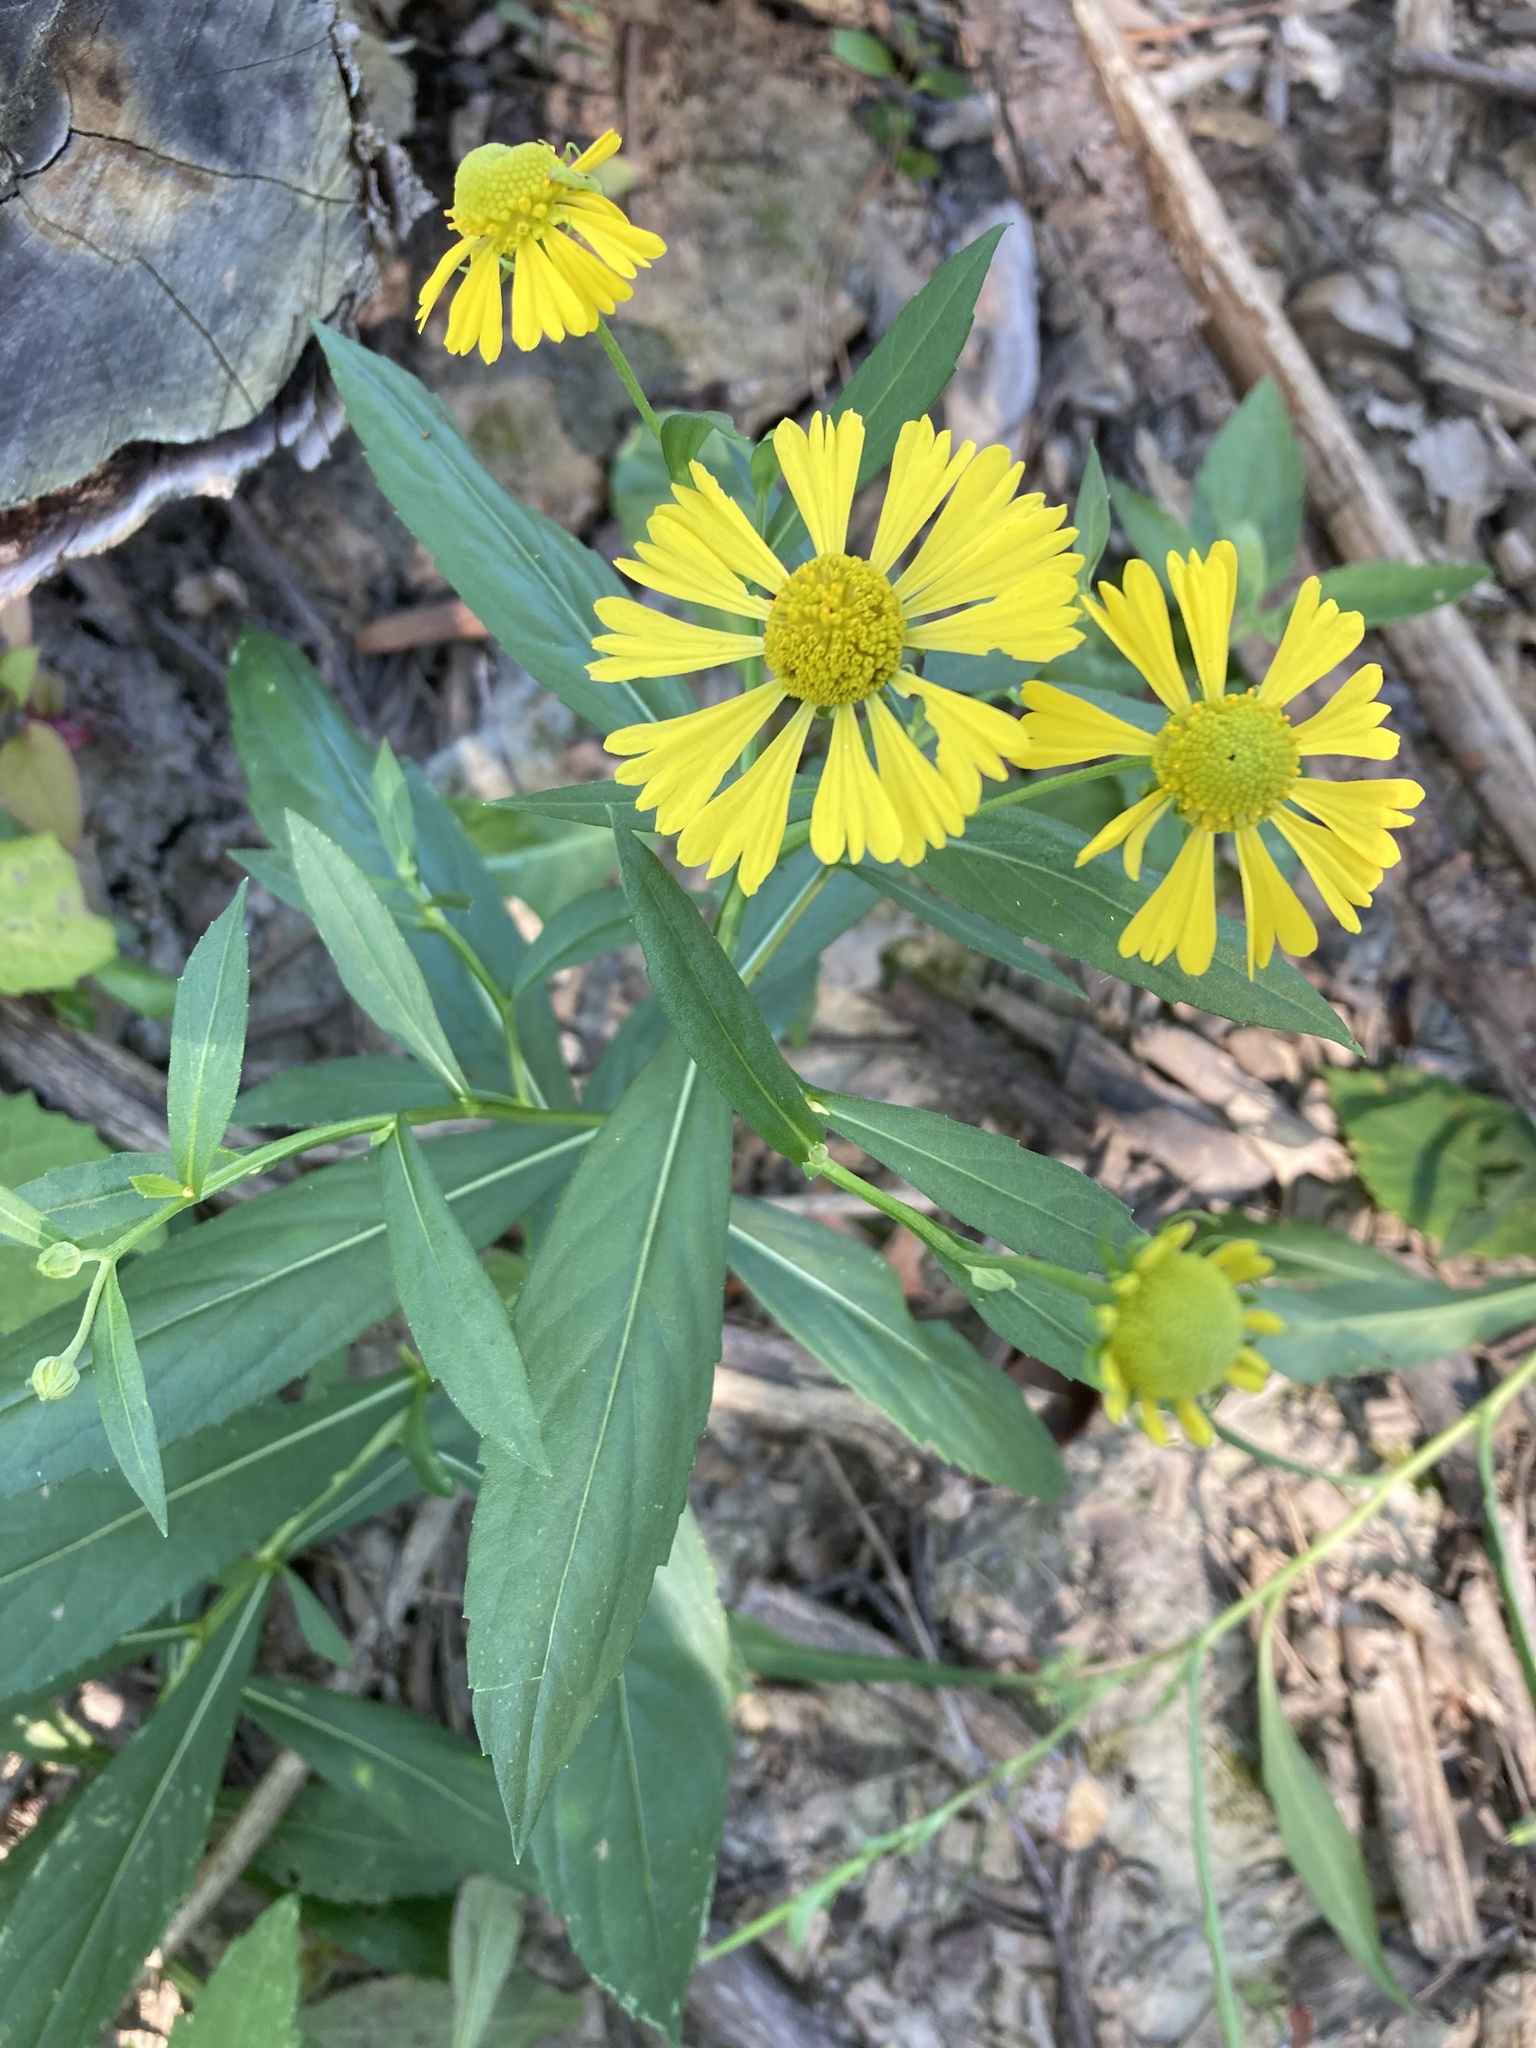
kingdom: Plantae
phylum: Tracheophyta
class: Magnoliopsida
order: Asterales
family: Asteraceae
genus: Helenium
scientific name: Helenium autumnale
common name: Sneezeweed
